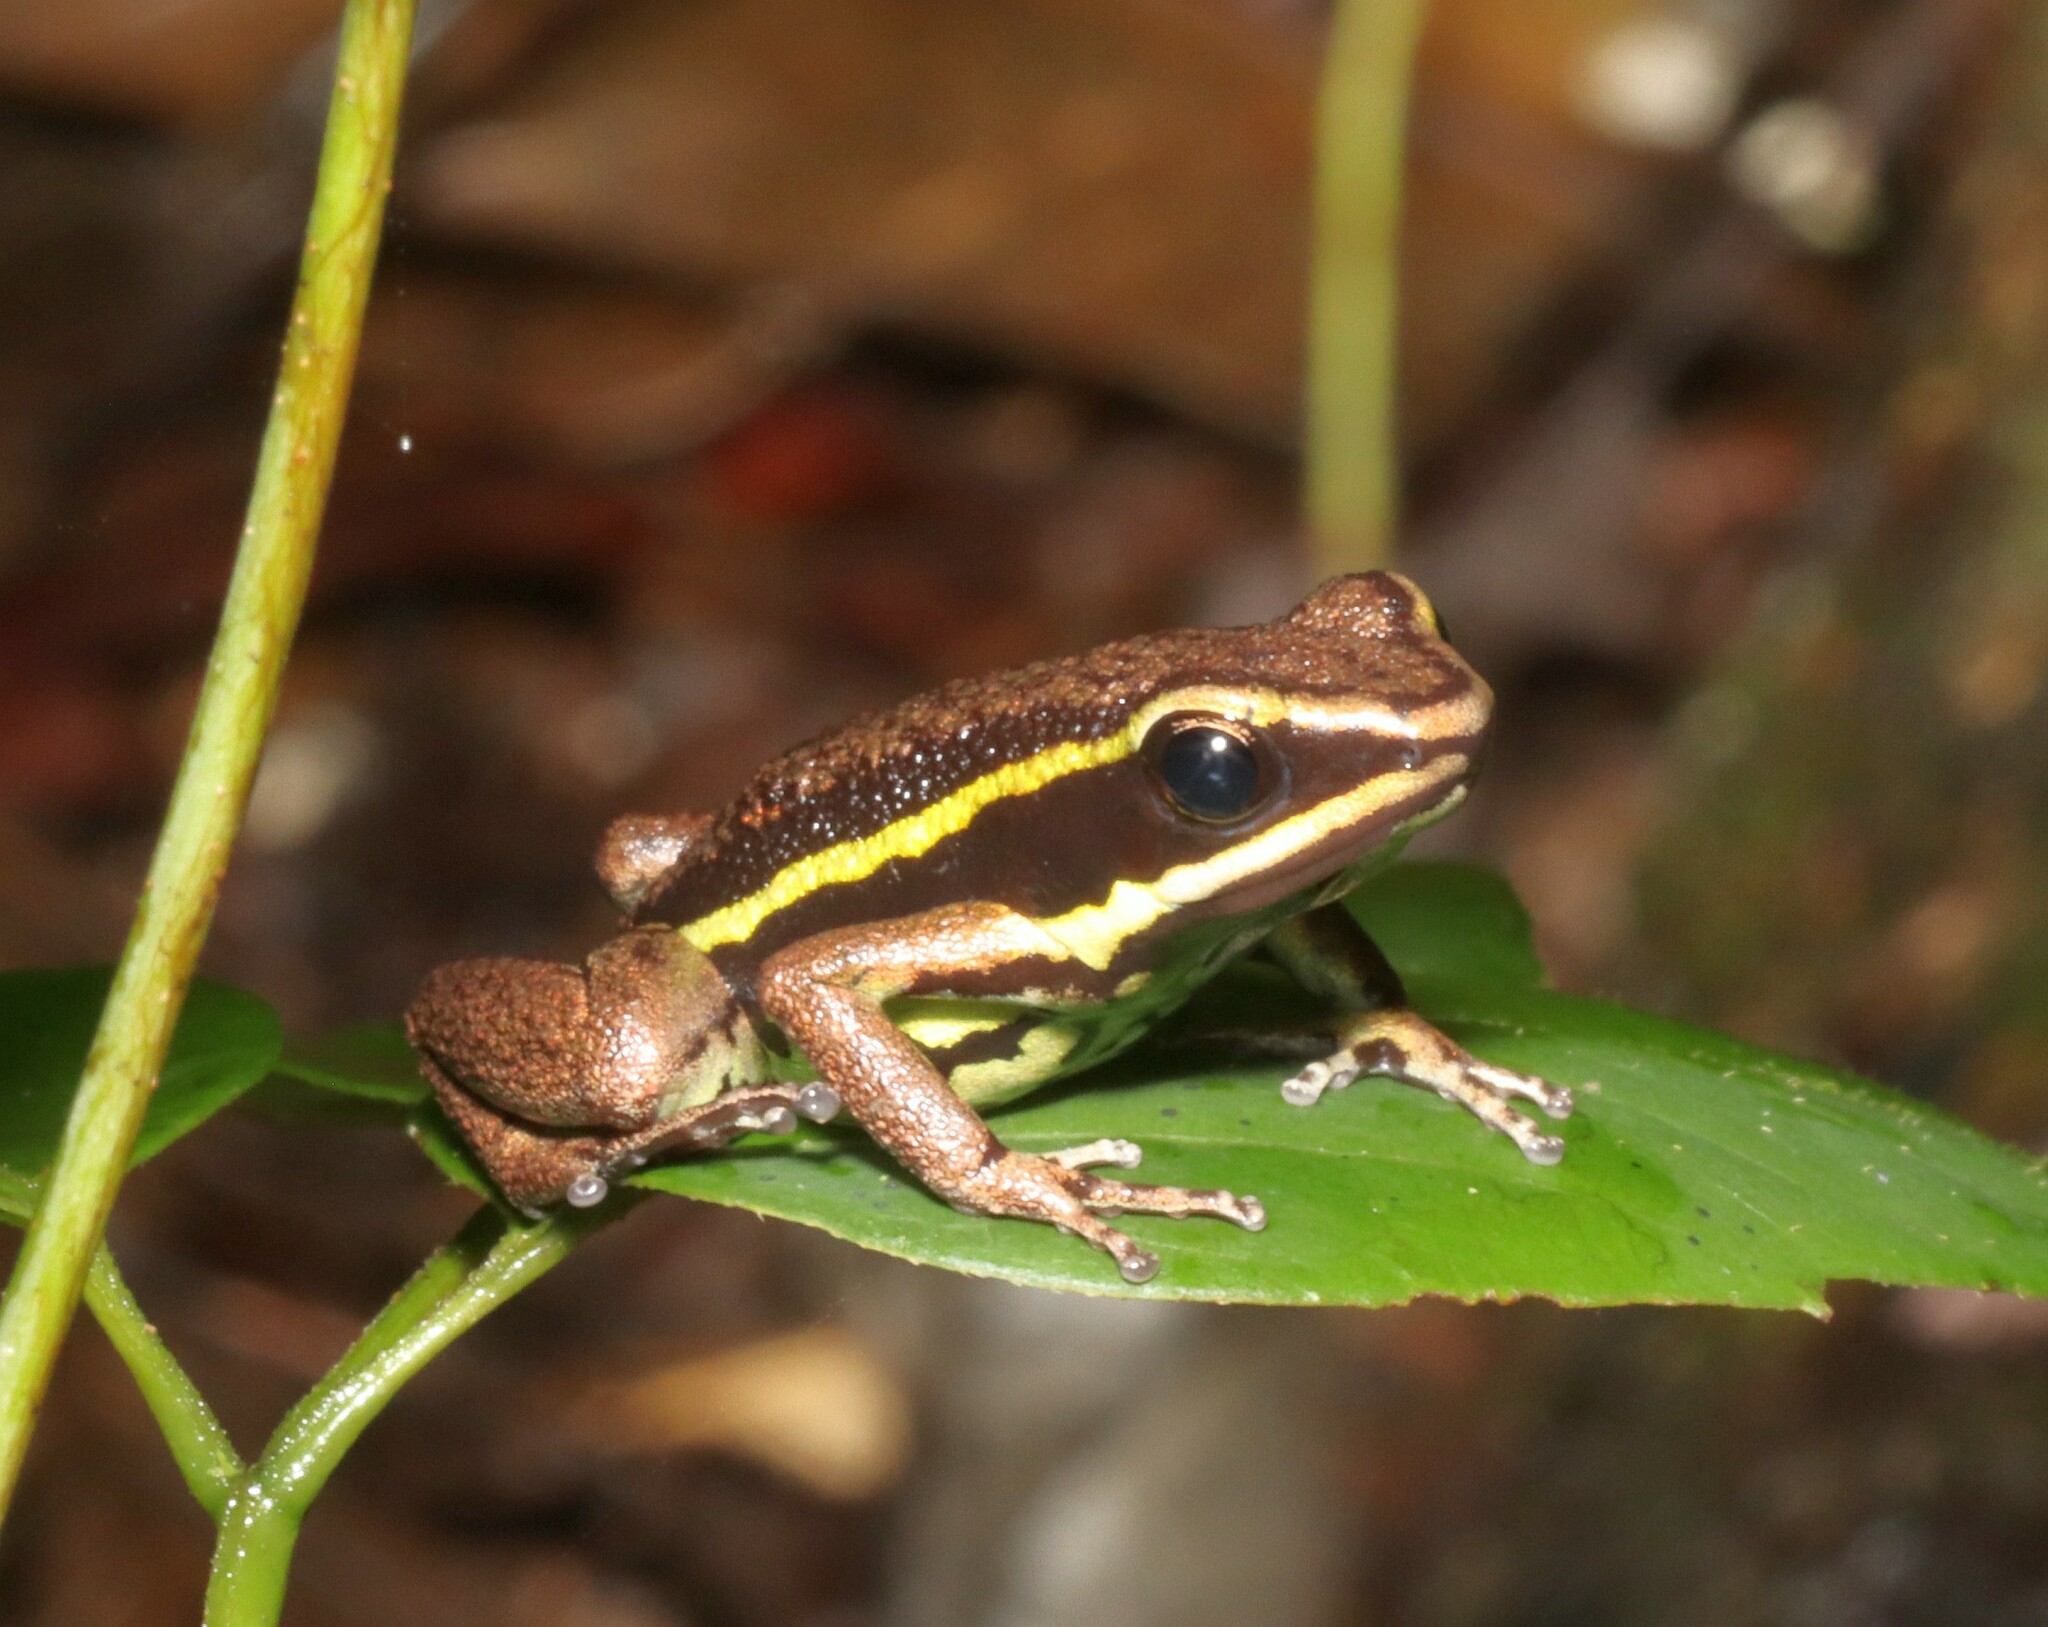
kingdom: Animalia
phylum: Chordata
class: Amphibia
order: Anura
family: Dendrobatidae
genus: Ameerega
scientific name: Ameerega petersi
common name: Peru poison frog
